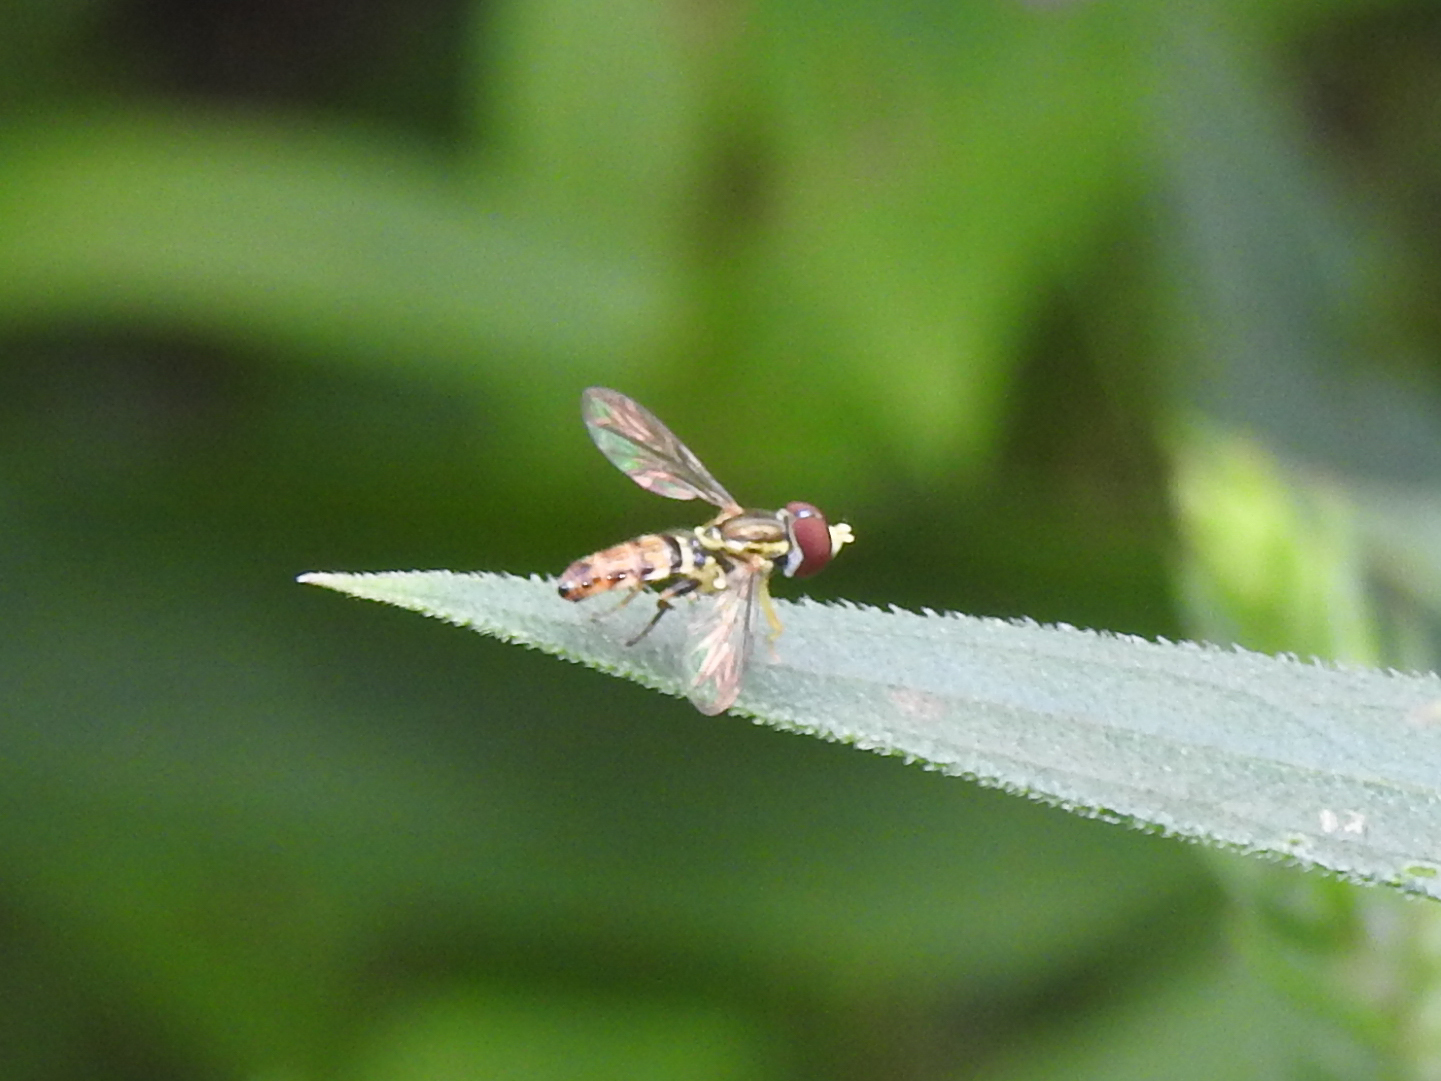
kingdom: Animalia
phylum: Arthropoda
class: Insecta
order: Diptera
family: Syrphidae
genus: Toxomerus
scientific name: Toxomerus geminatus
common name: Eastern calligrapher
